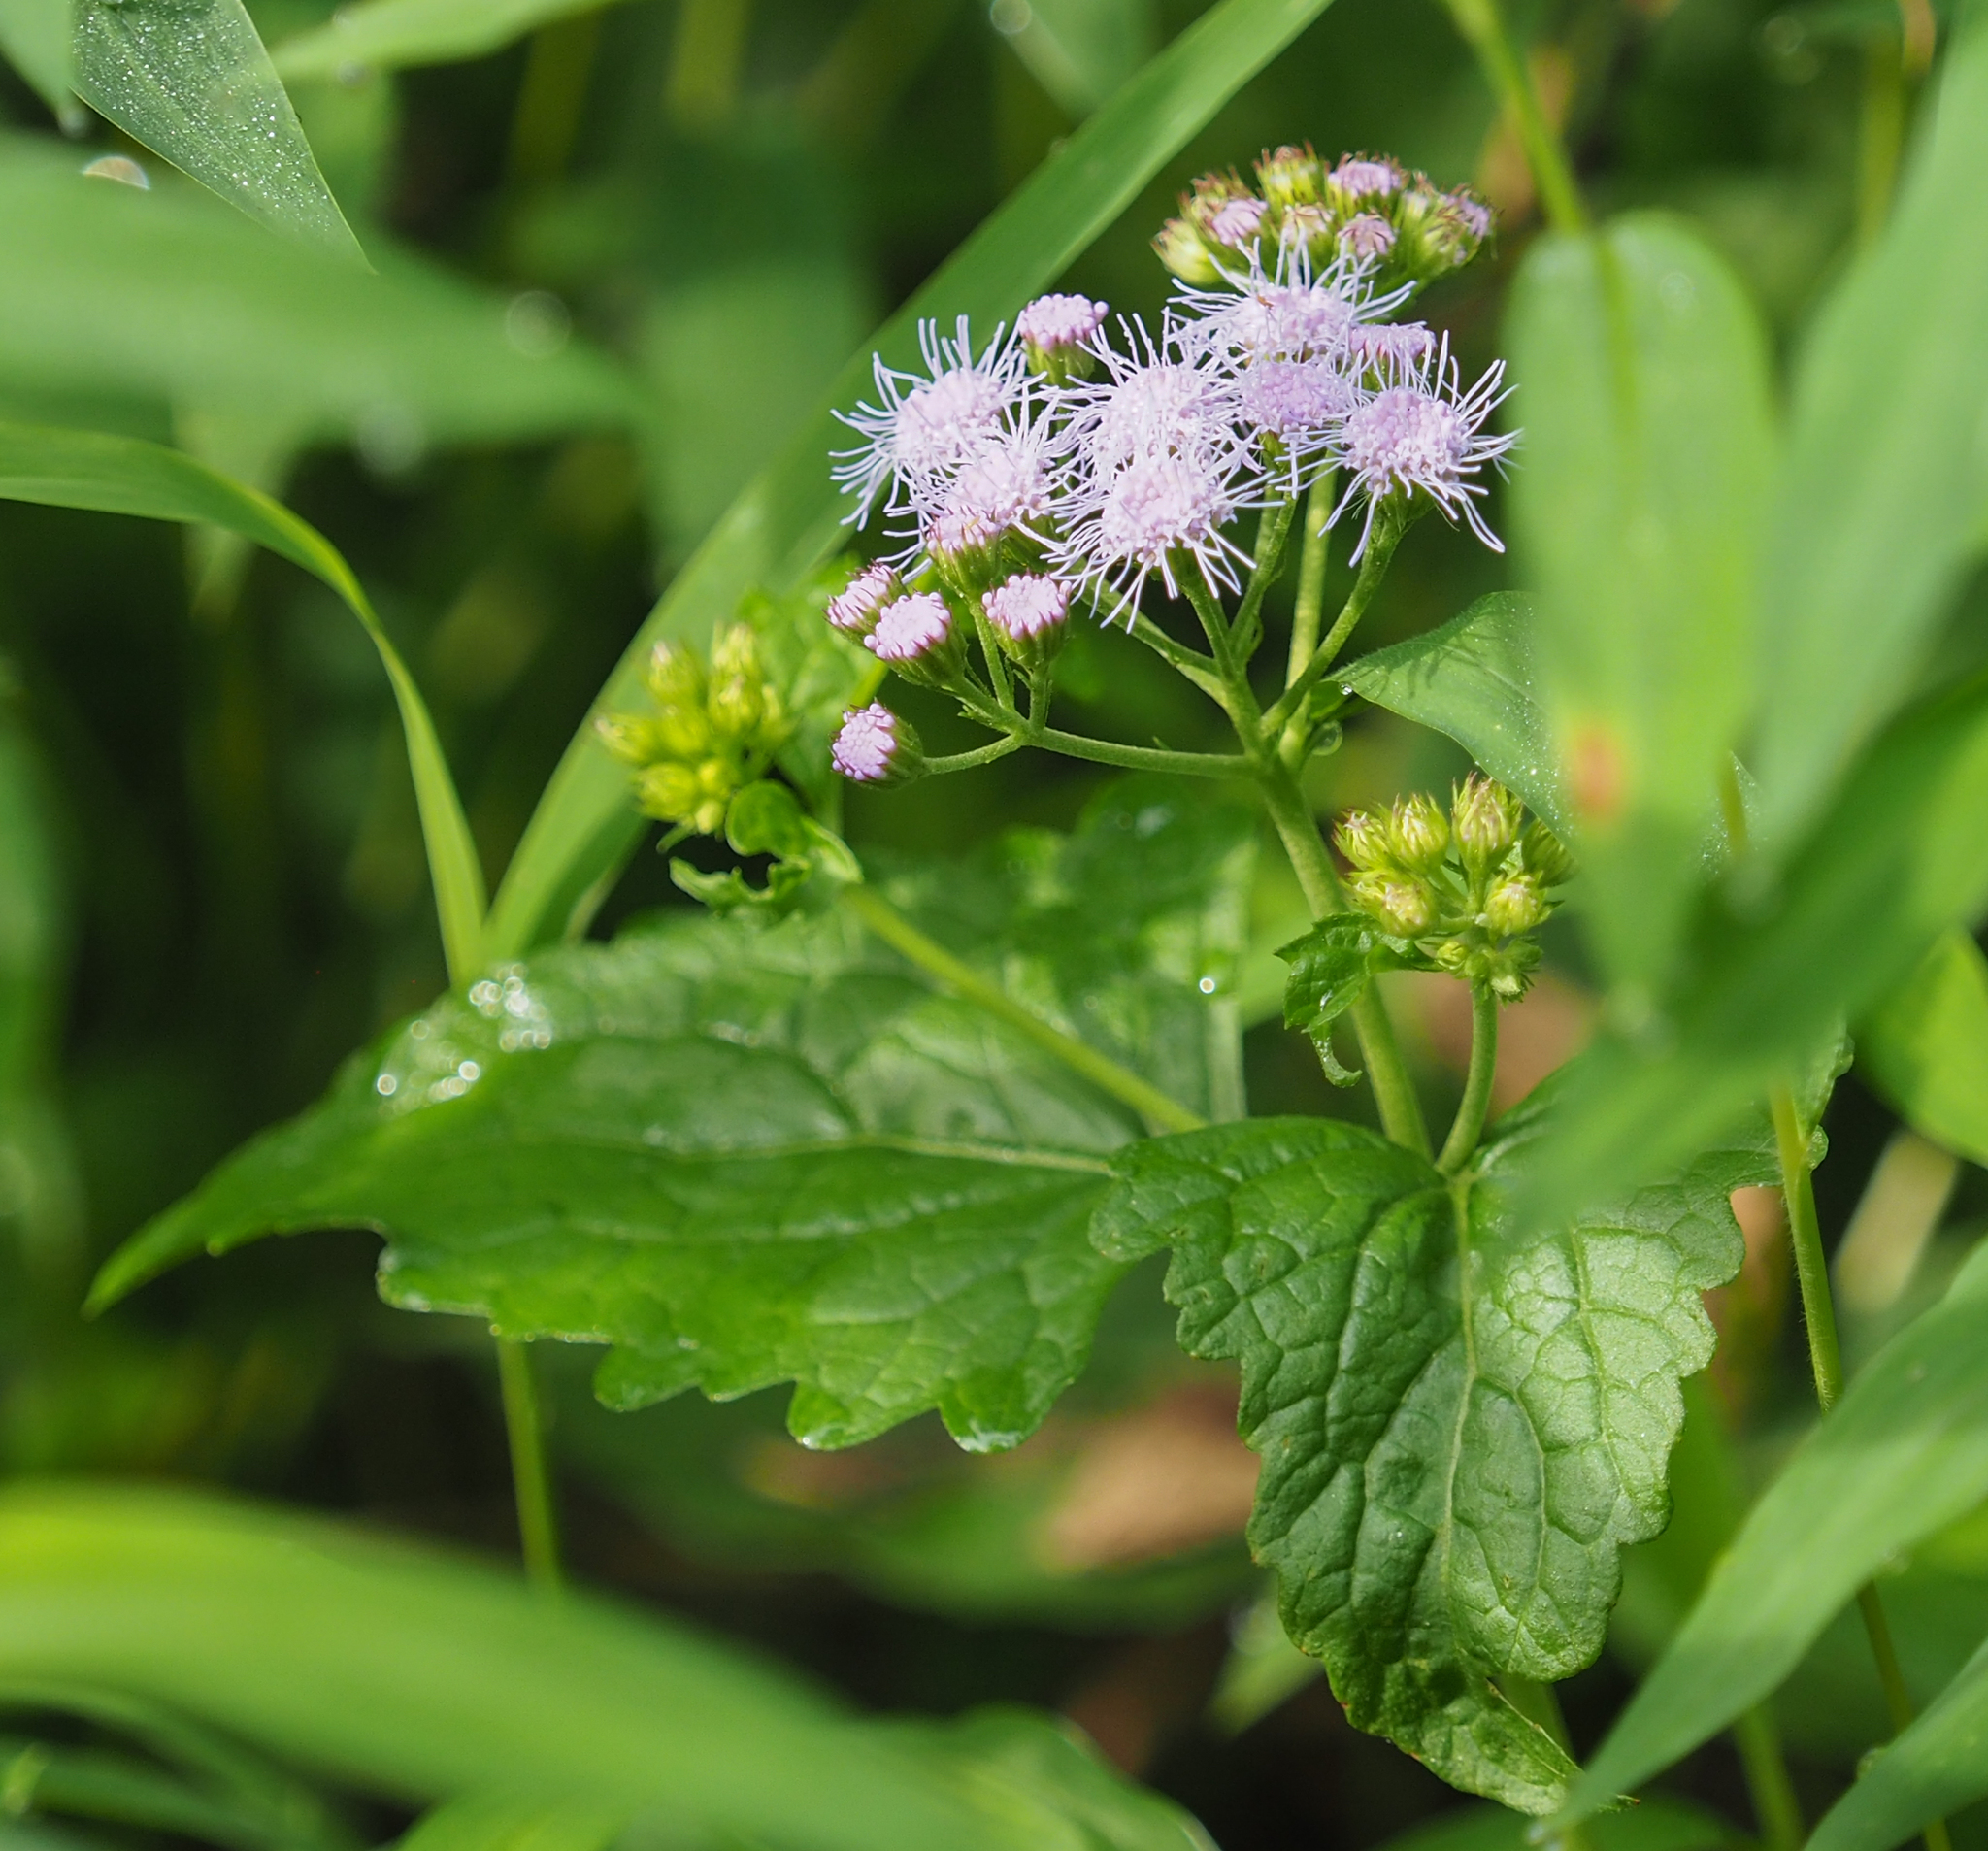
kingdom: Plantae
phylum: Tracheophyta
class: Magnoliopsida
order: Asterales
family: Asteraceae
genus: Conoclinium
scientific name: Conoclinium coelestinum
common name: Blue mistflower
